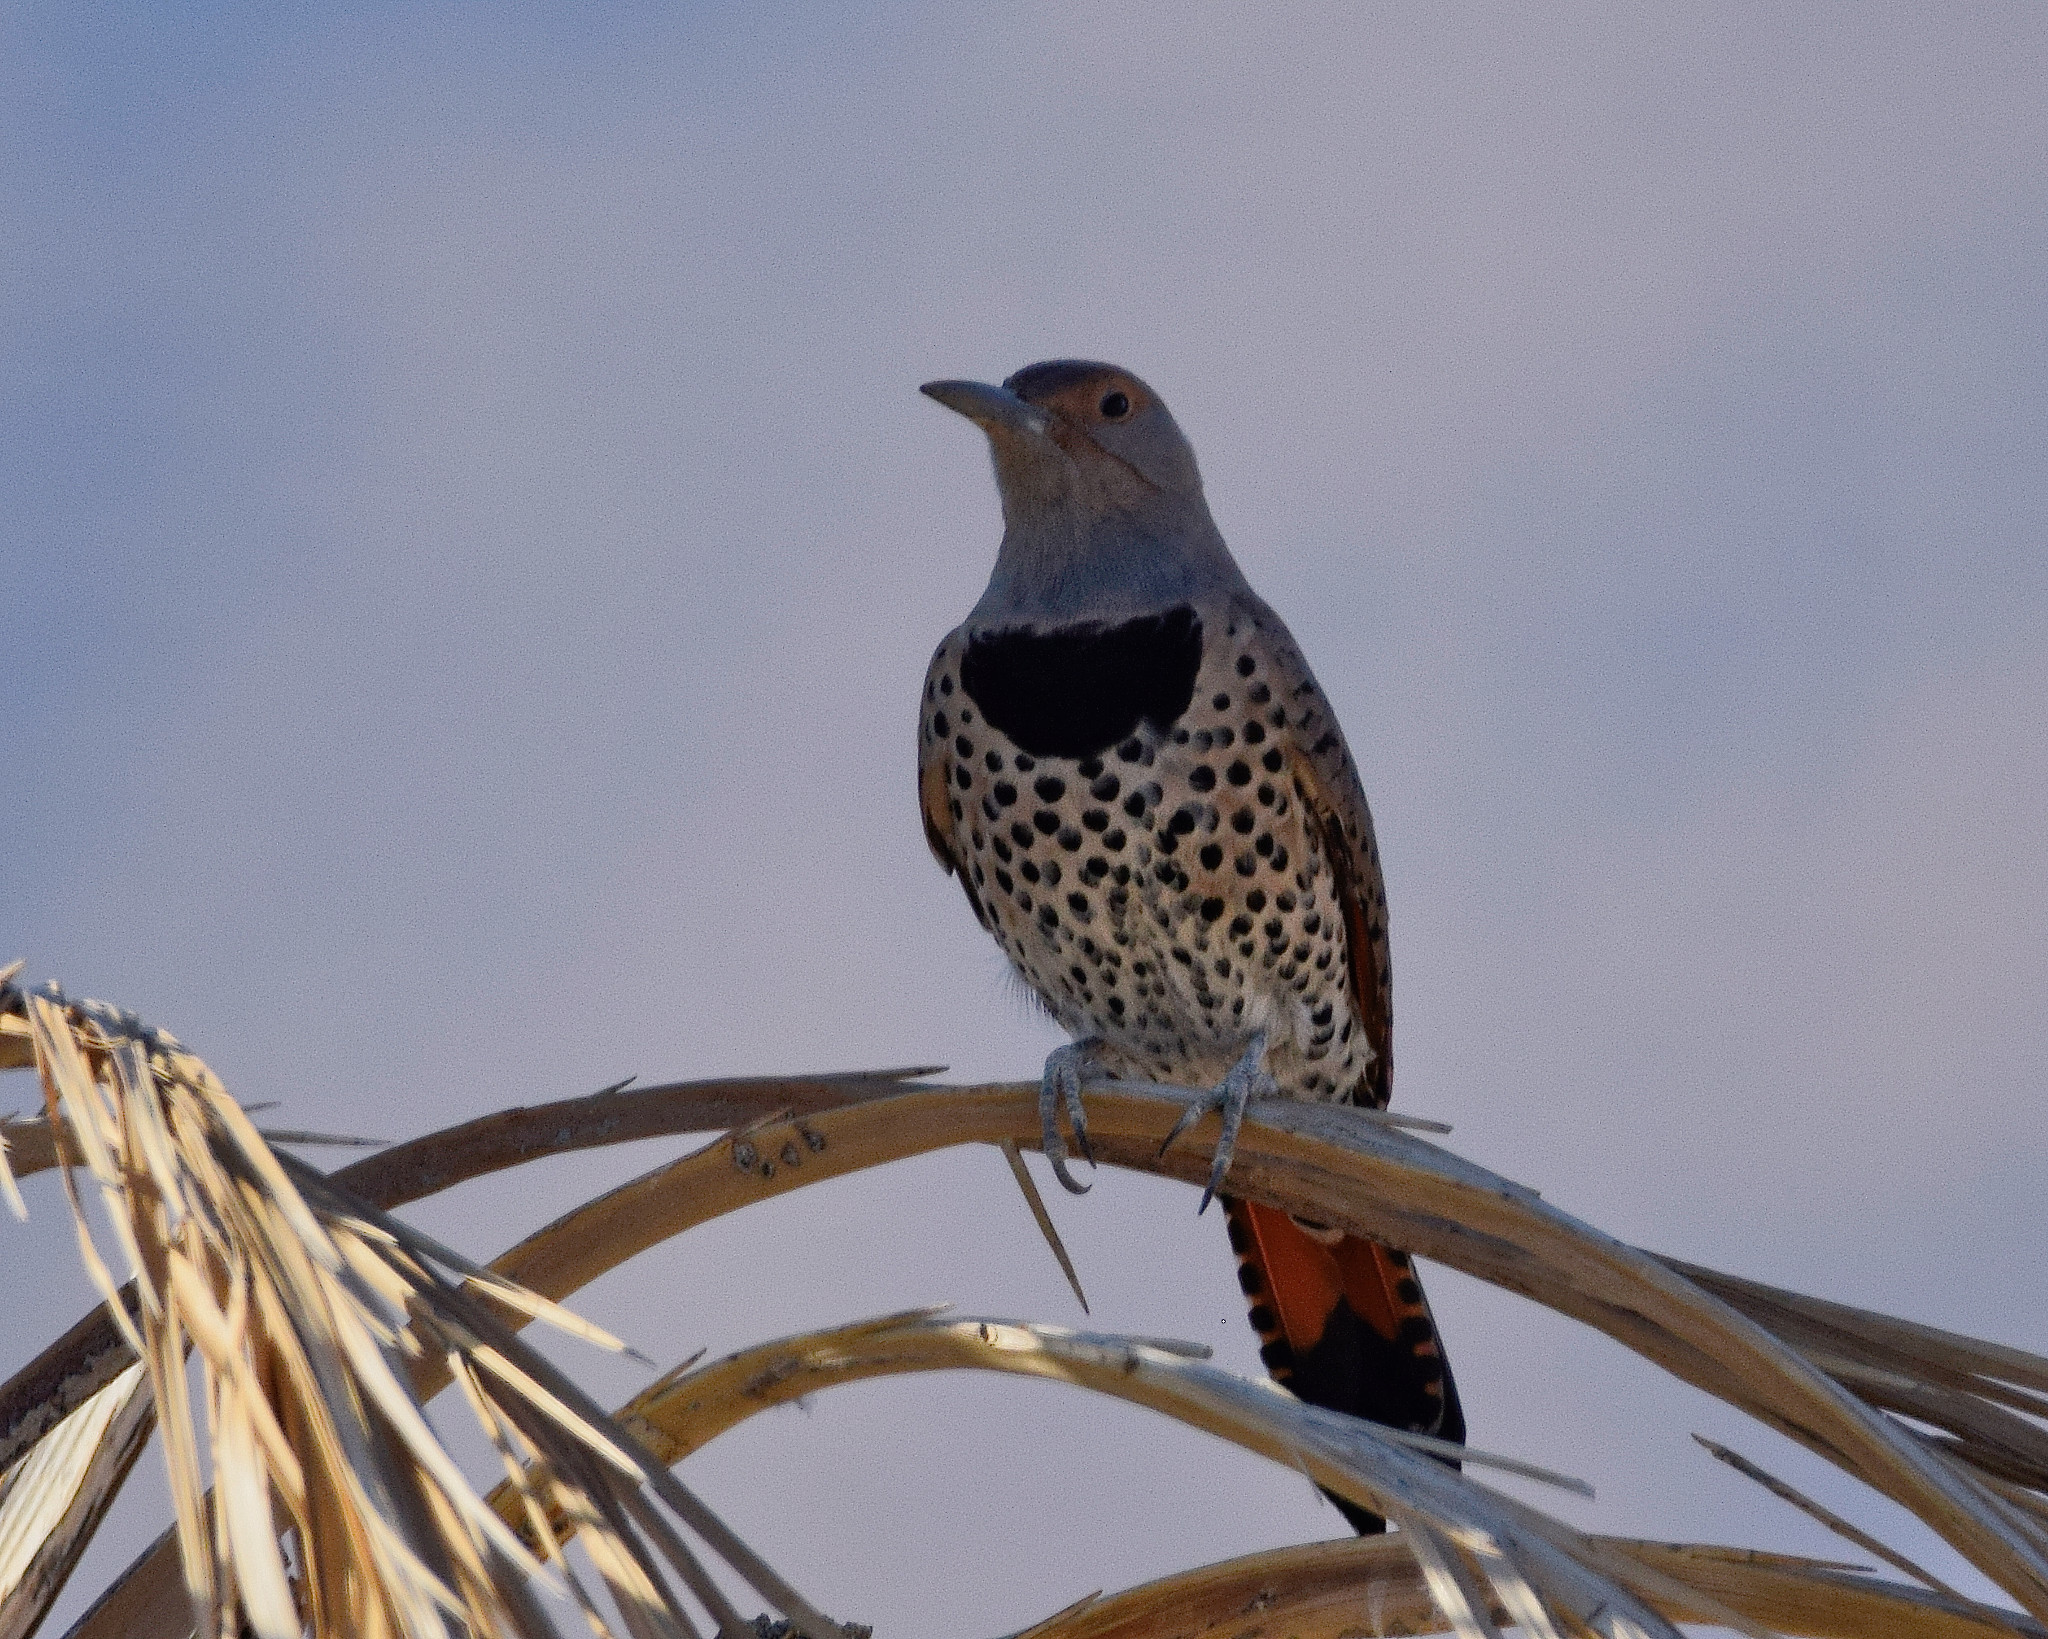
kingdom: Animalia
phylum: Chordata
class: Aves
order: Piciformes
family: Picidae
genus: Colaptes
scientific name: Colaptes auratus
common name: Northern flicker
